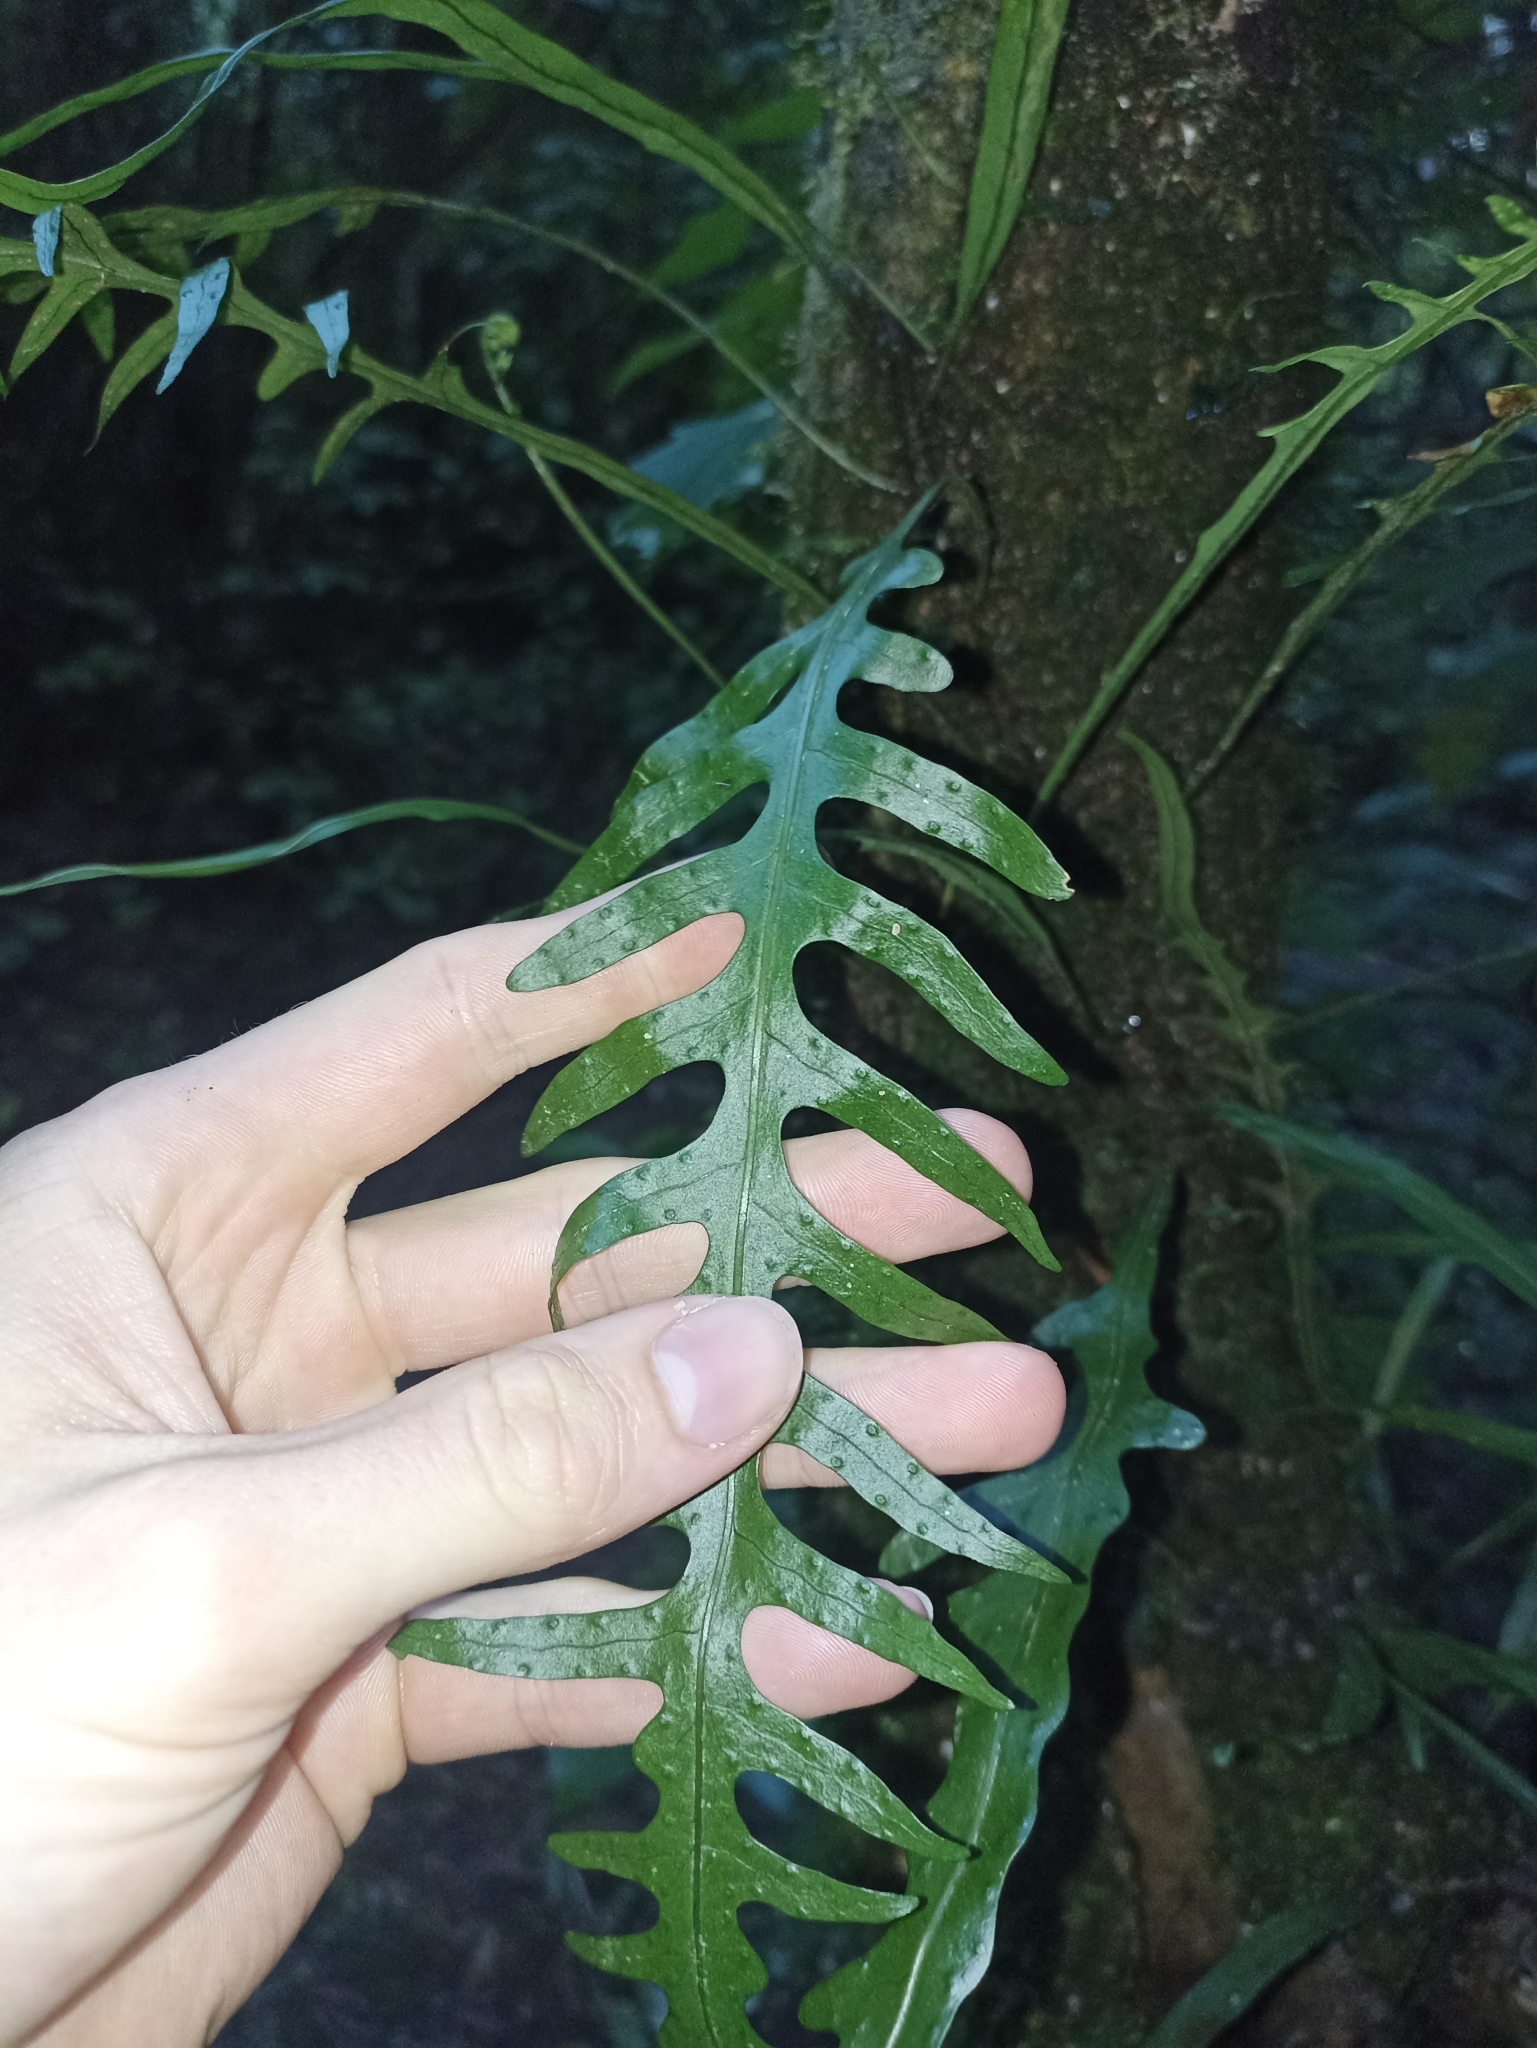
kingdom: Plantae
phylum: Tracheophyta
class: Polypodiopsida
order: Polypodiales
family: Polypodiaceae
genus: Lecanopteris
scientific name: Lecanopteris scandens
